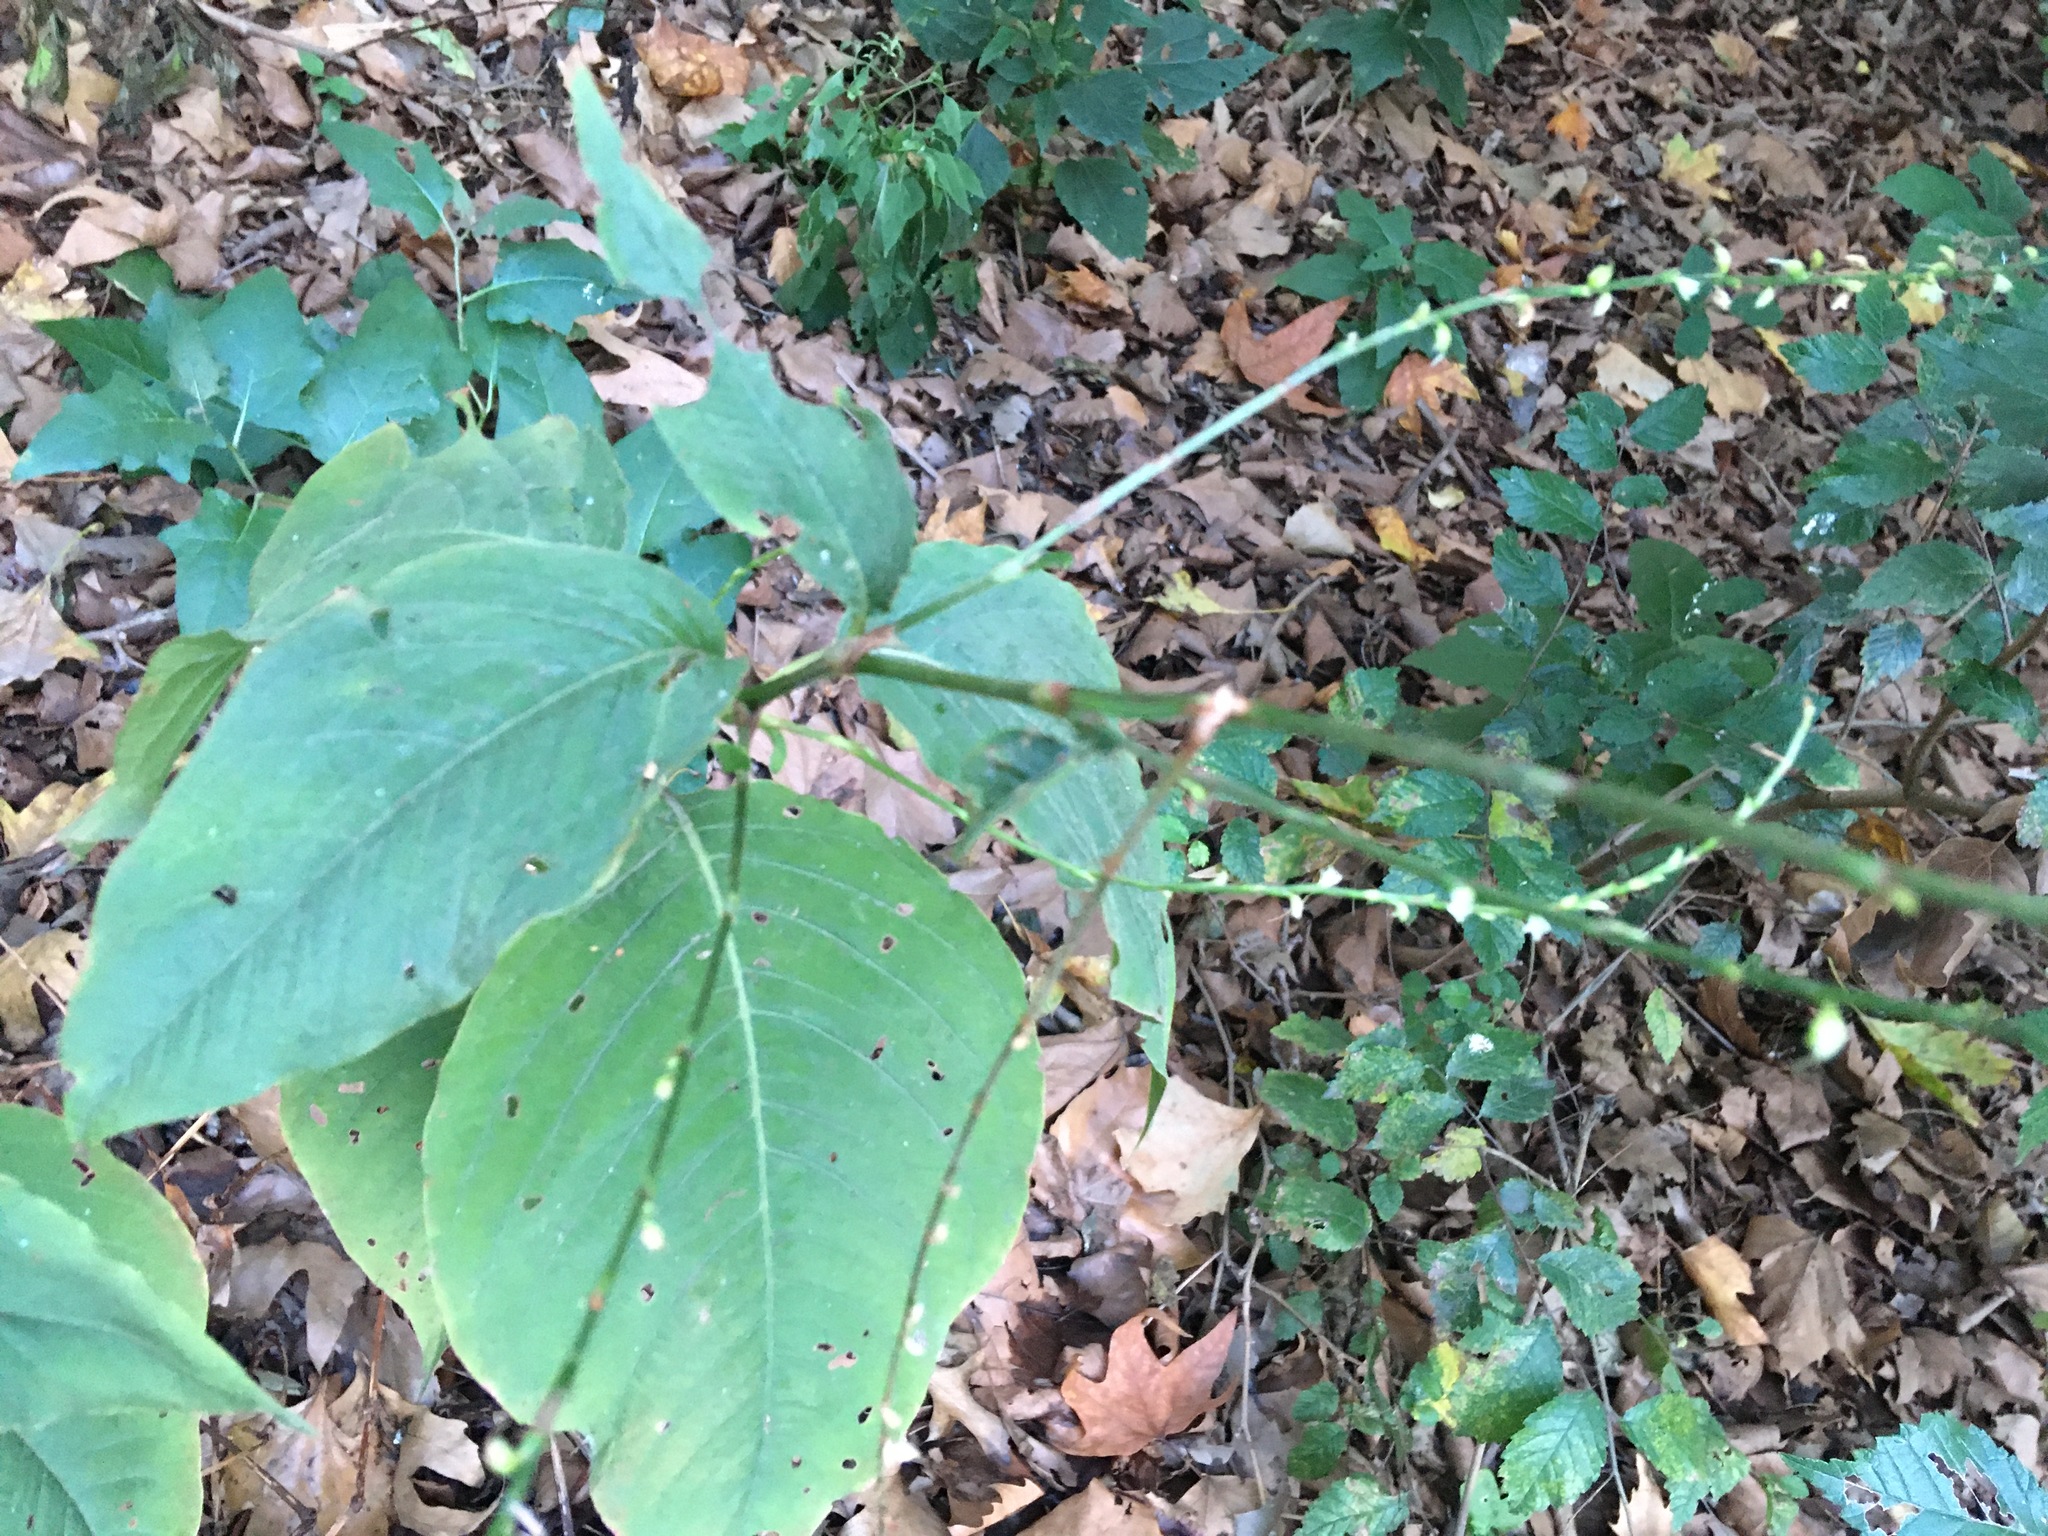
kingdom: Plantae
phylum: Tracheophyta
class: Magnoliopsida
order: Caryophyllales
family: Polygonaceae
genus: Persicaria
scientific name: Persicaria virginiana
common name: Jumpseed
